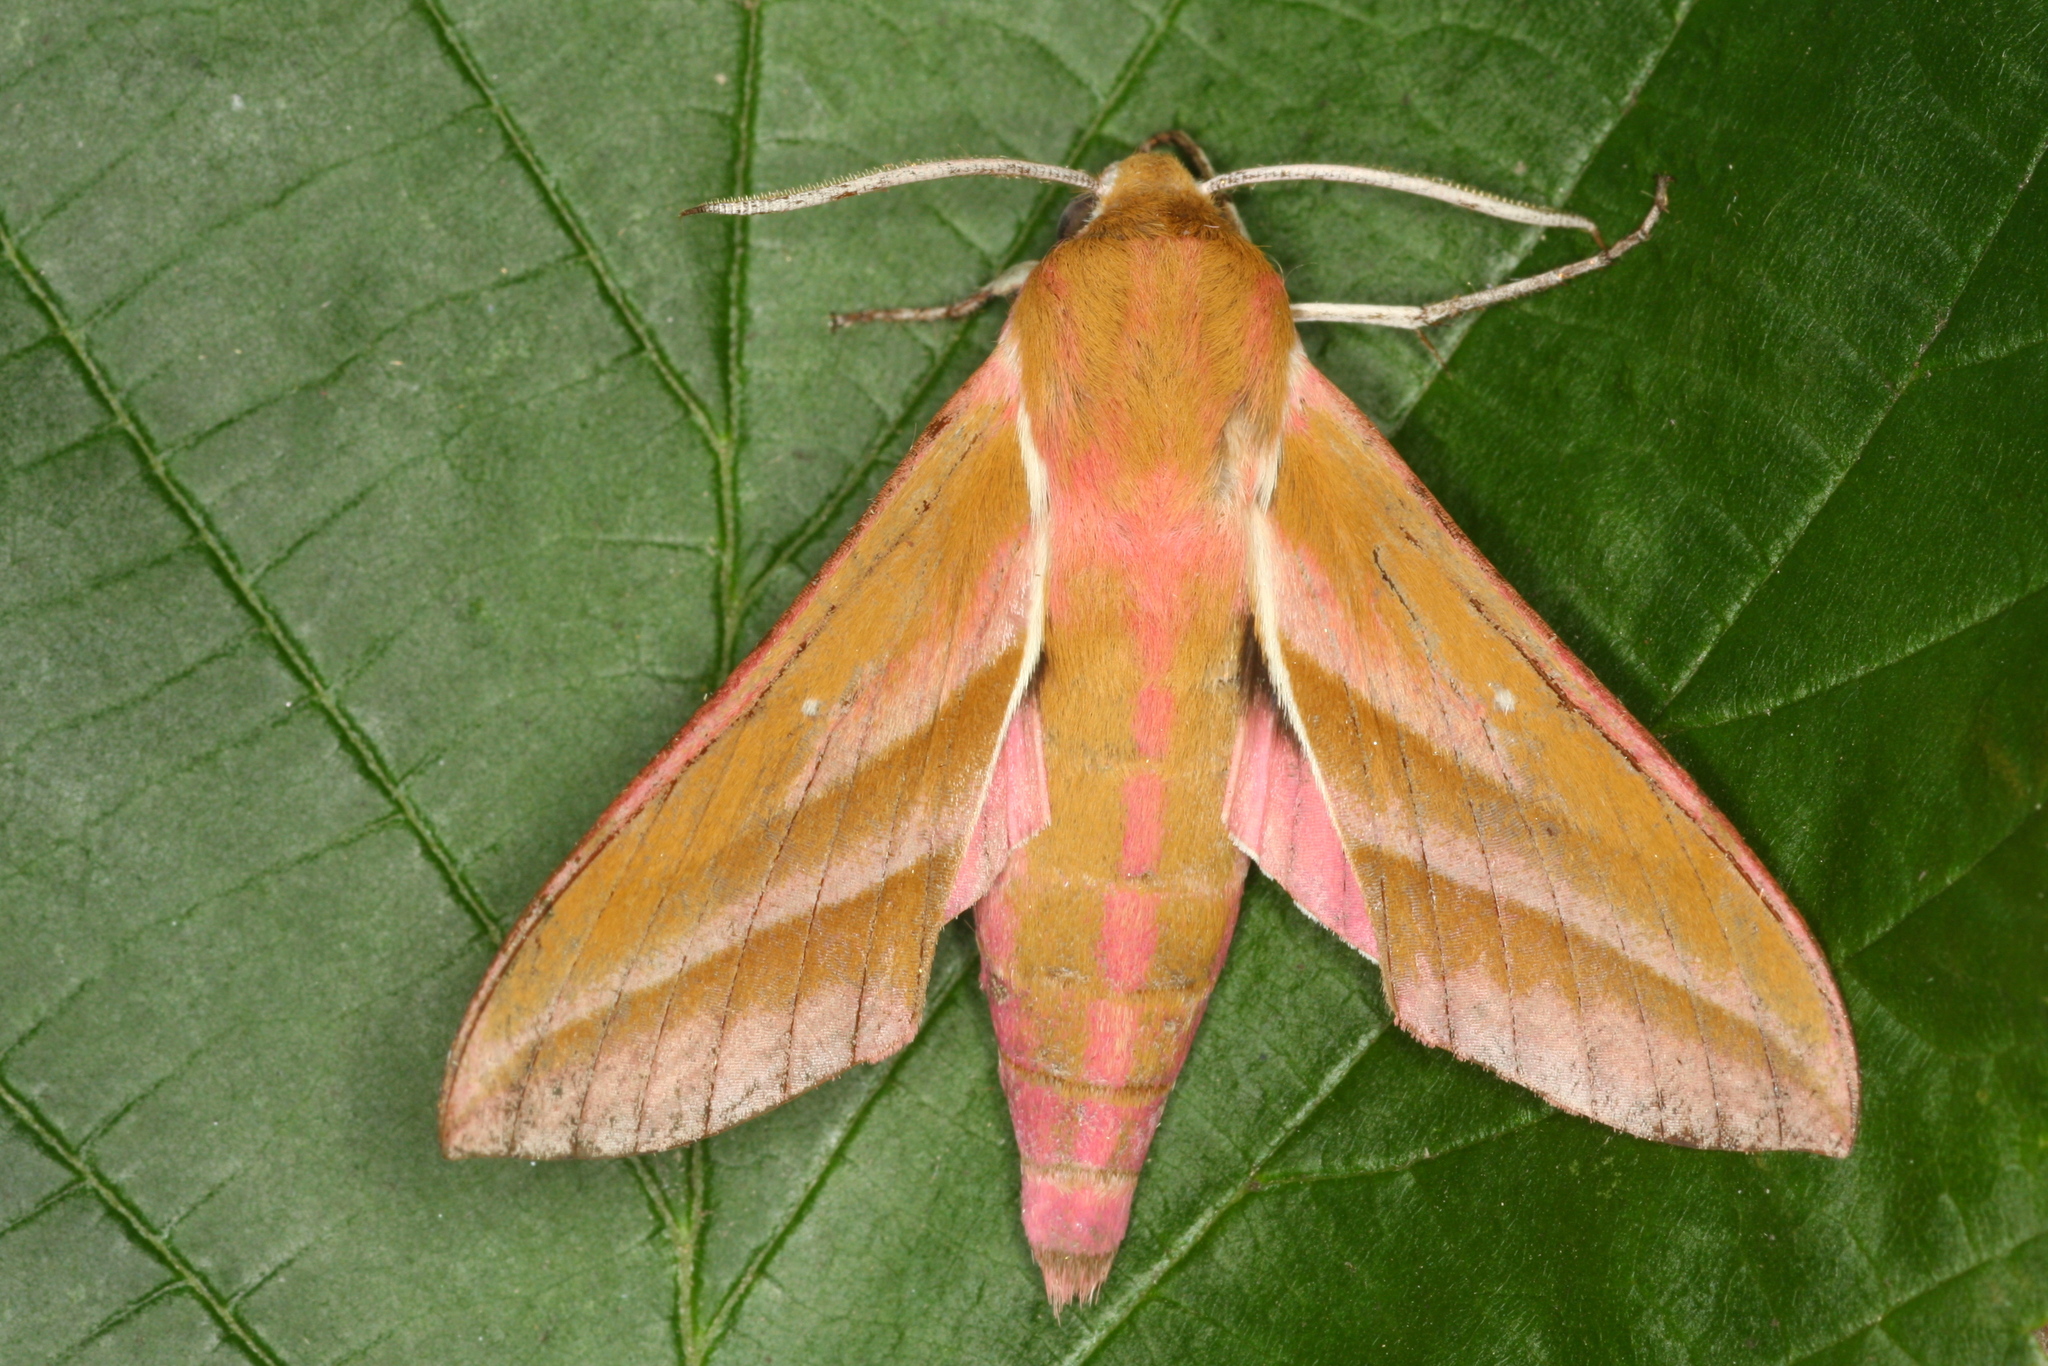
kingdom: Animalia
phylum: Arthropoda
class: Insecta
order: Lepidoptera
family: Sphingidae
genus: Deilephila
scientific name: Deilephila elpenor
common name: Elephant hawk-moth
